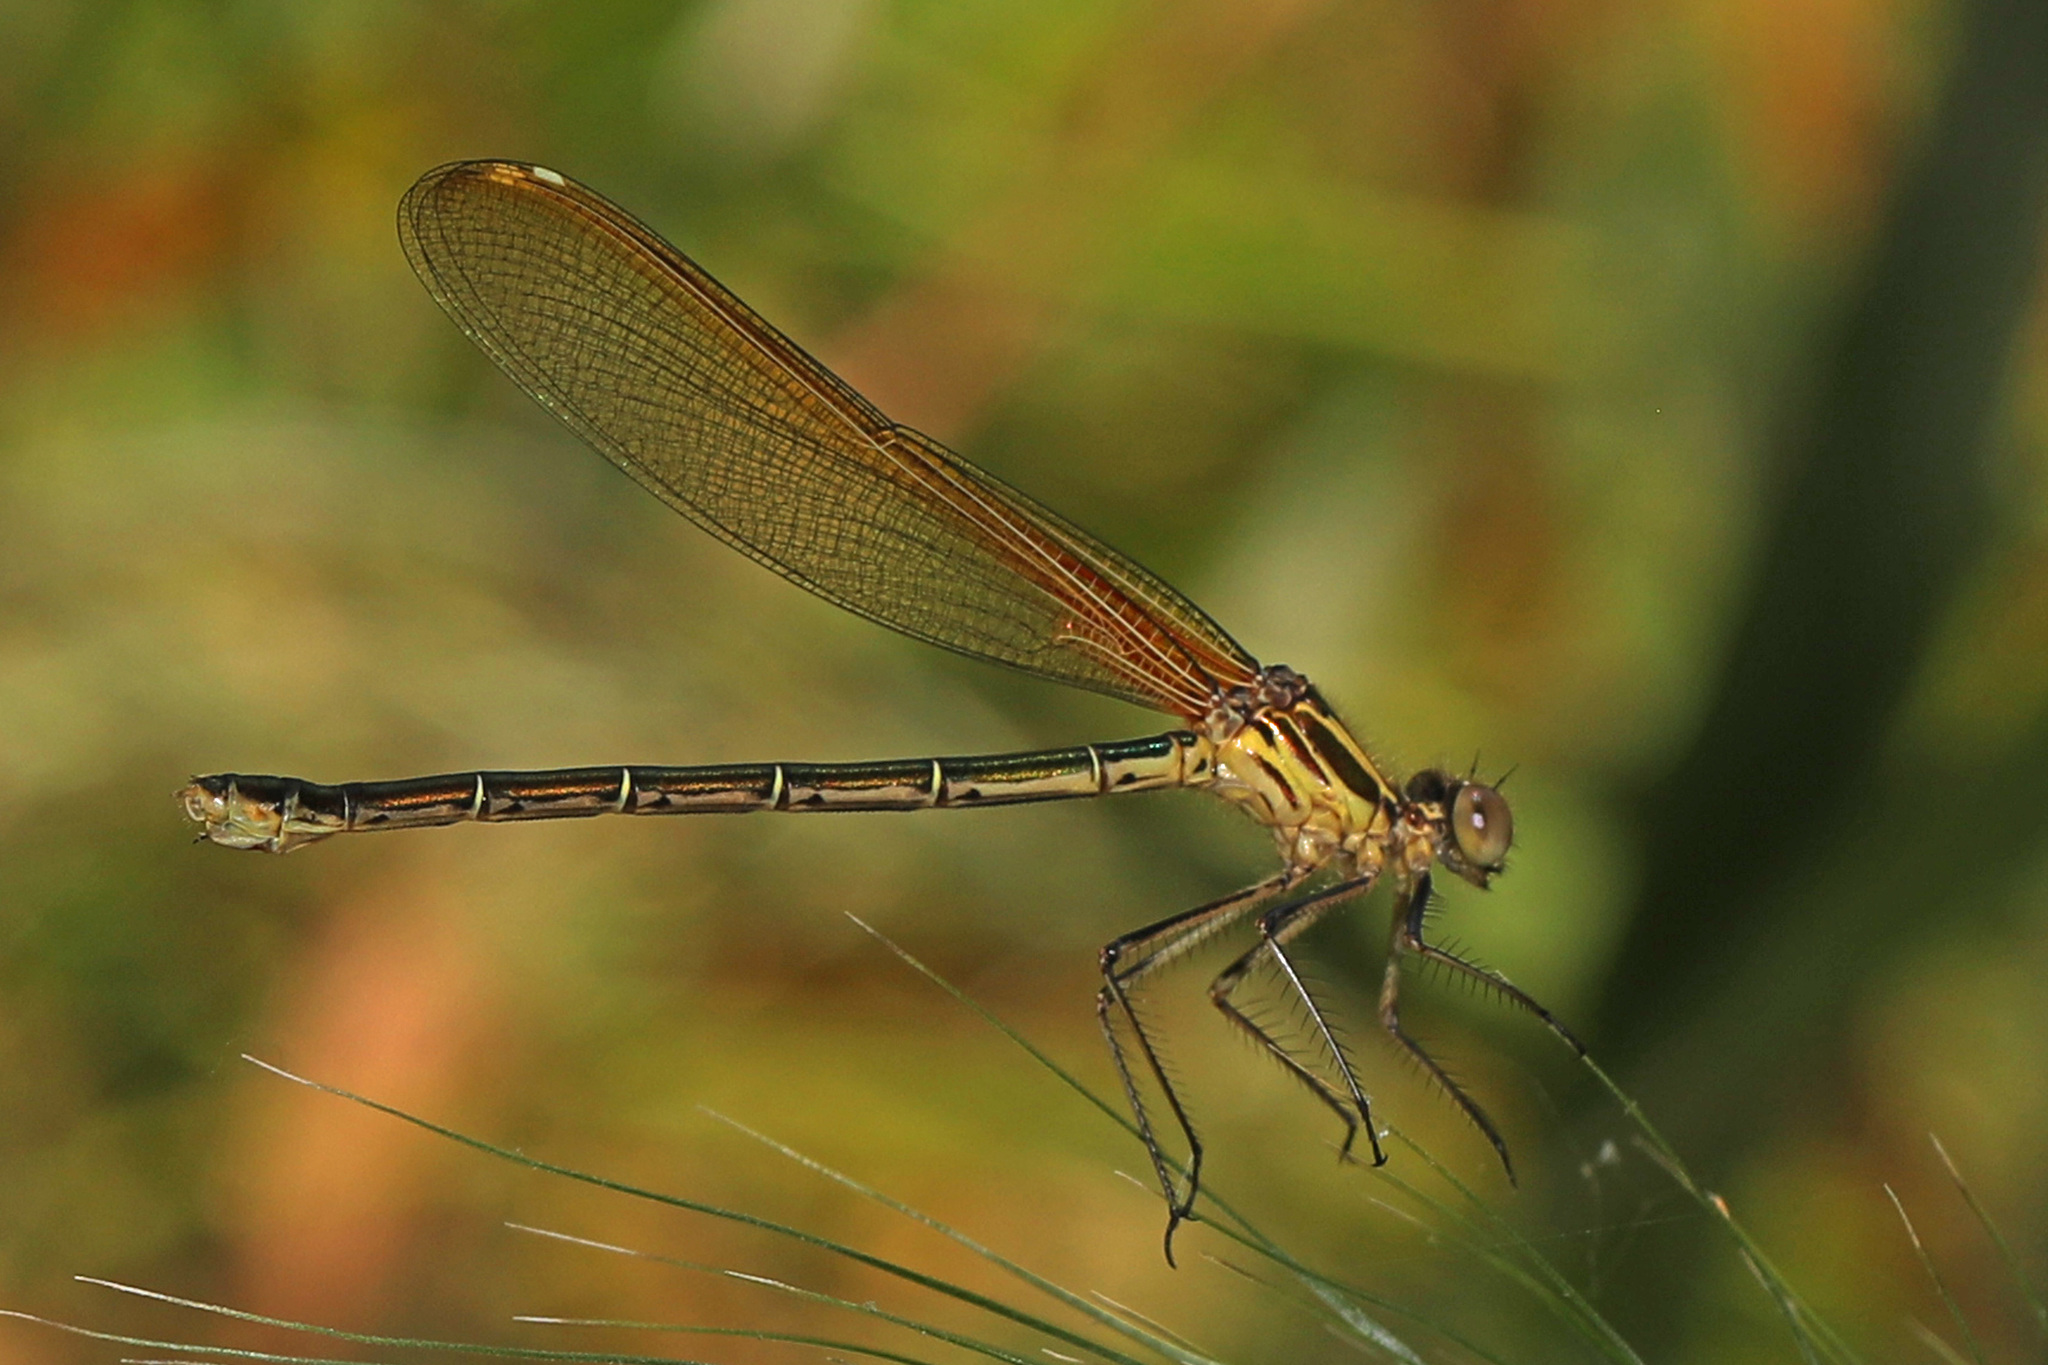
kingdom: Animalia
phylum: Arthropoda
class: Insecta
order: Odonata
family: Calopterygidae
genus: Hetaerina
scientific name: Hetaerina americana
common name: American rubyspot
